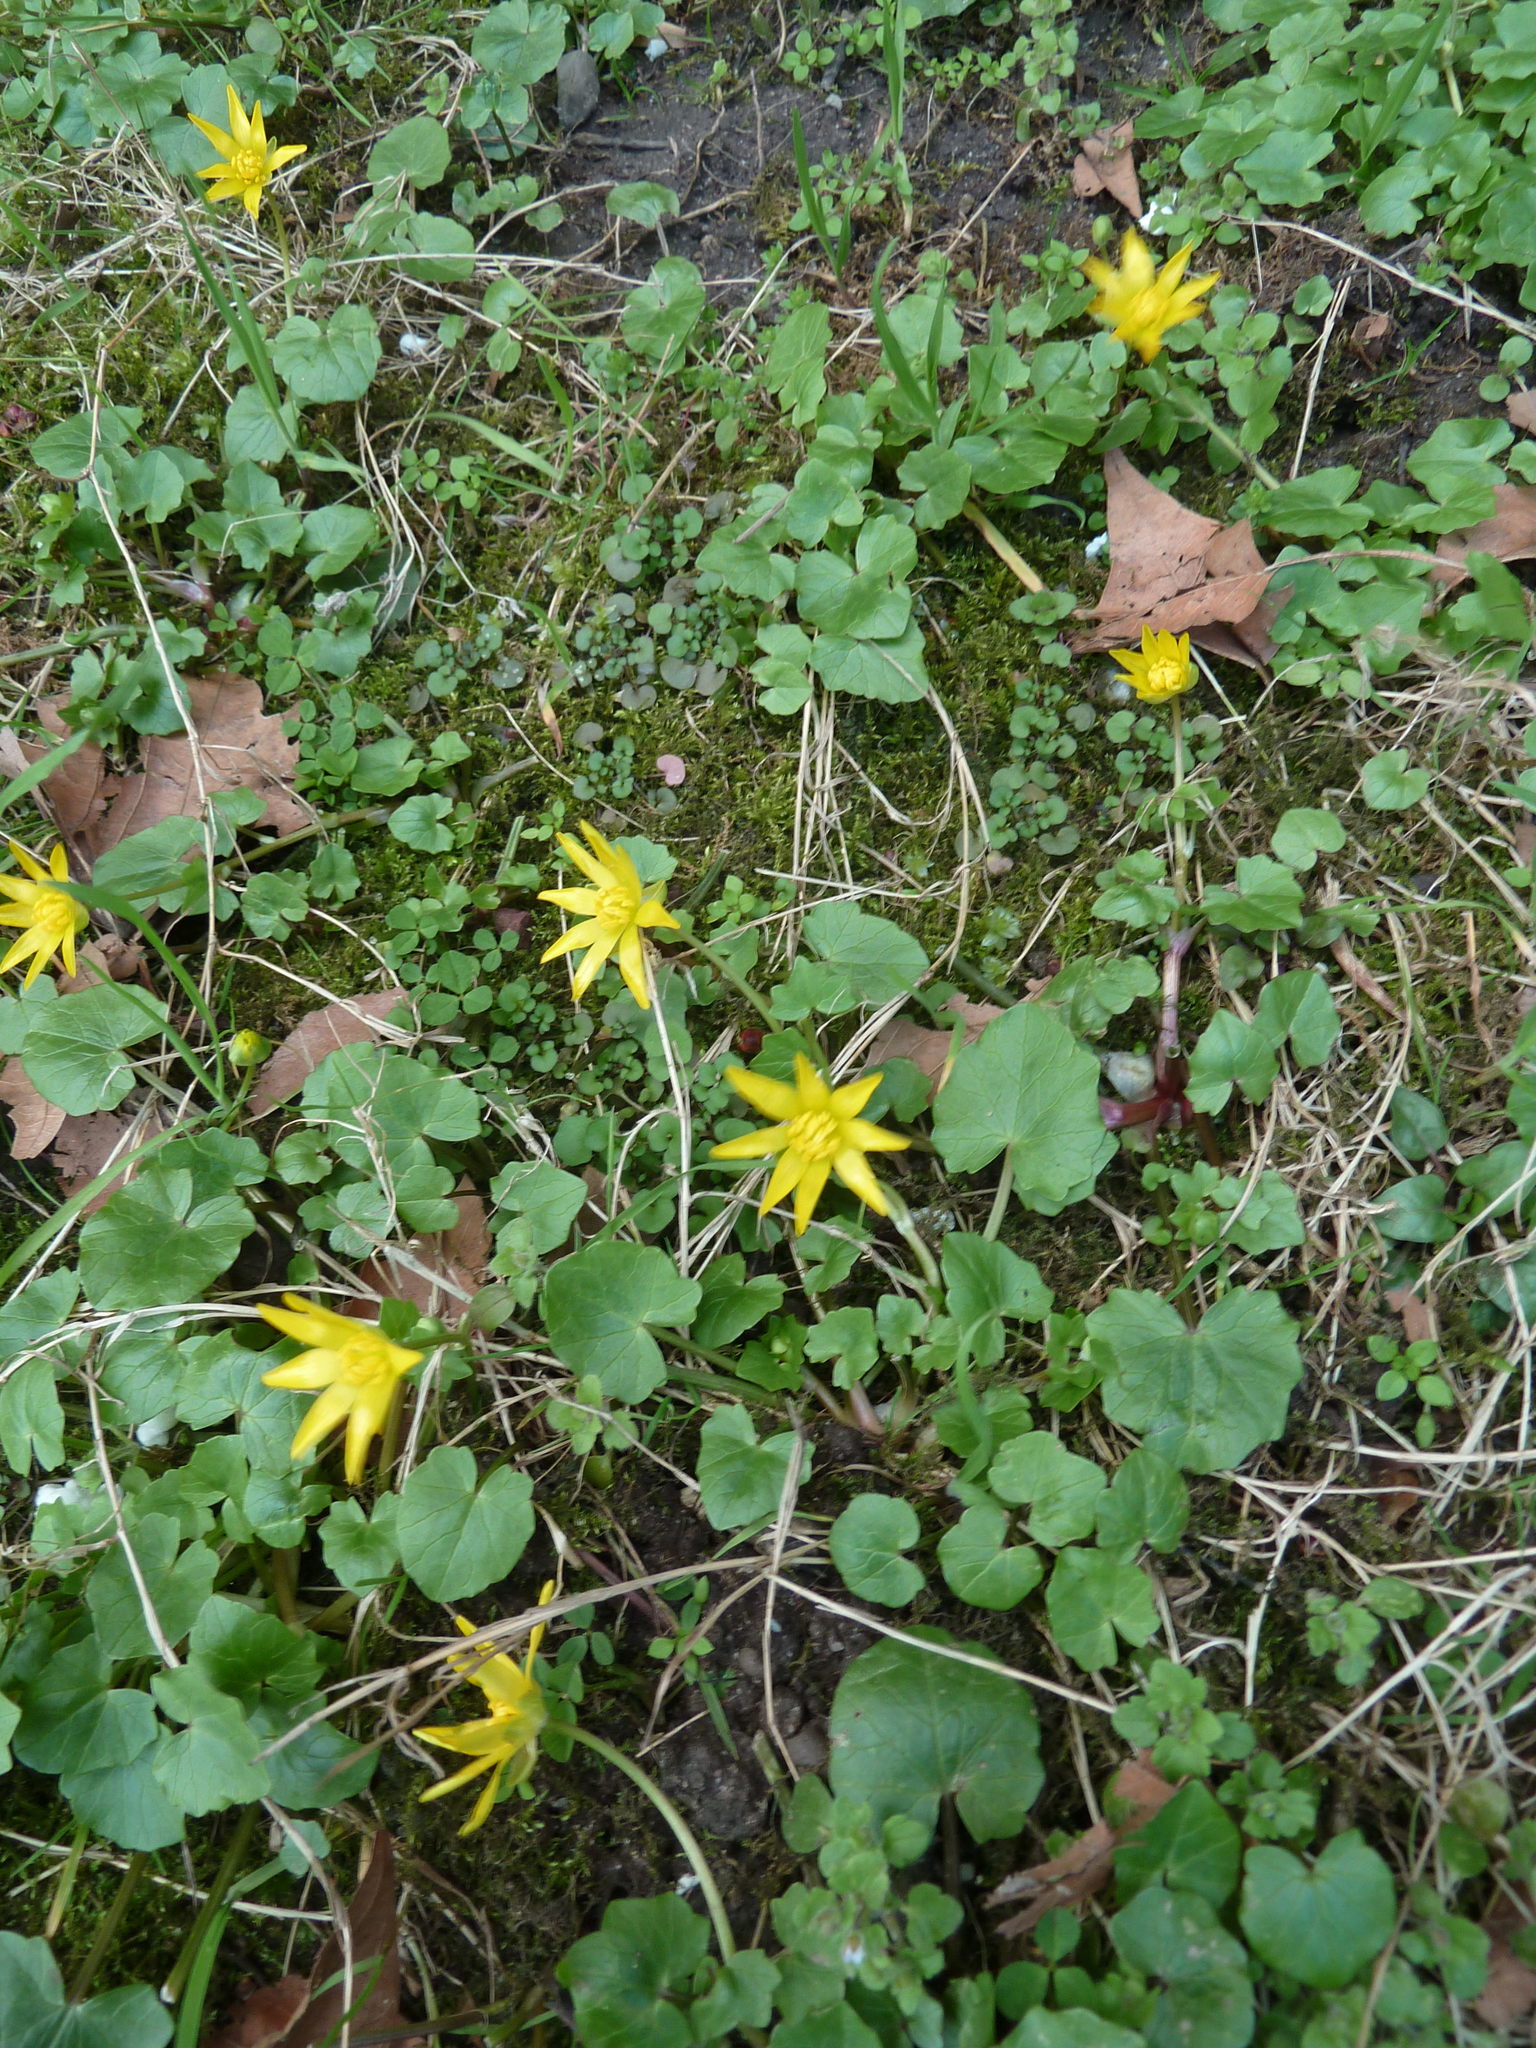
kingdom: Plantae
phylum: Tracheophyta
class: Magnoliopsida
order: Ranunculales
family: Ranunculaceae
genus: Ficaria
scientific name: Ficaria verna
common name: Lesser celandine
